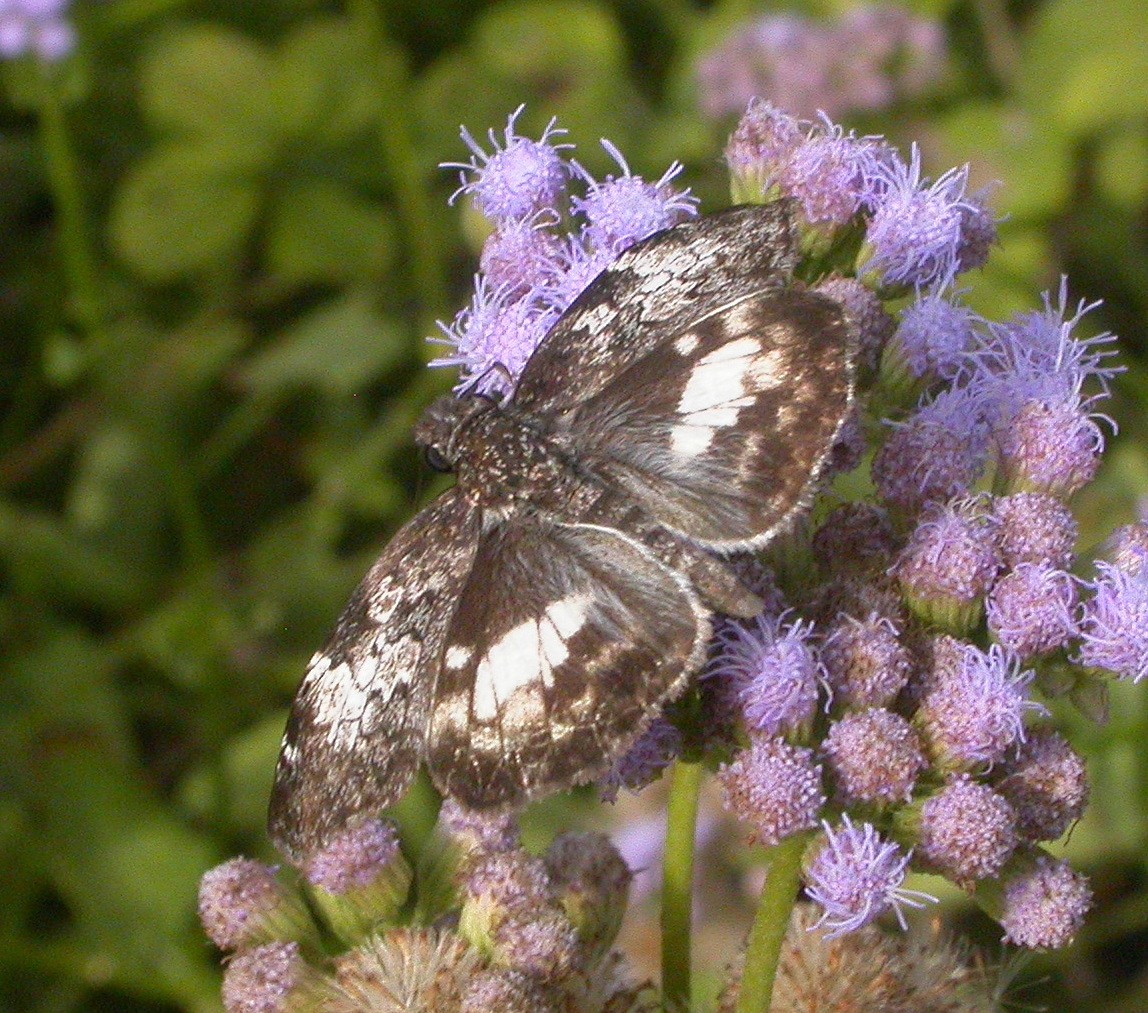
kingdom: Animalia
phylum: Arthropoda
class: Insecta
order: Lepidoptera
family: Hesperiidae
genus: Chiothion
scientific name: Chiothion georgina
